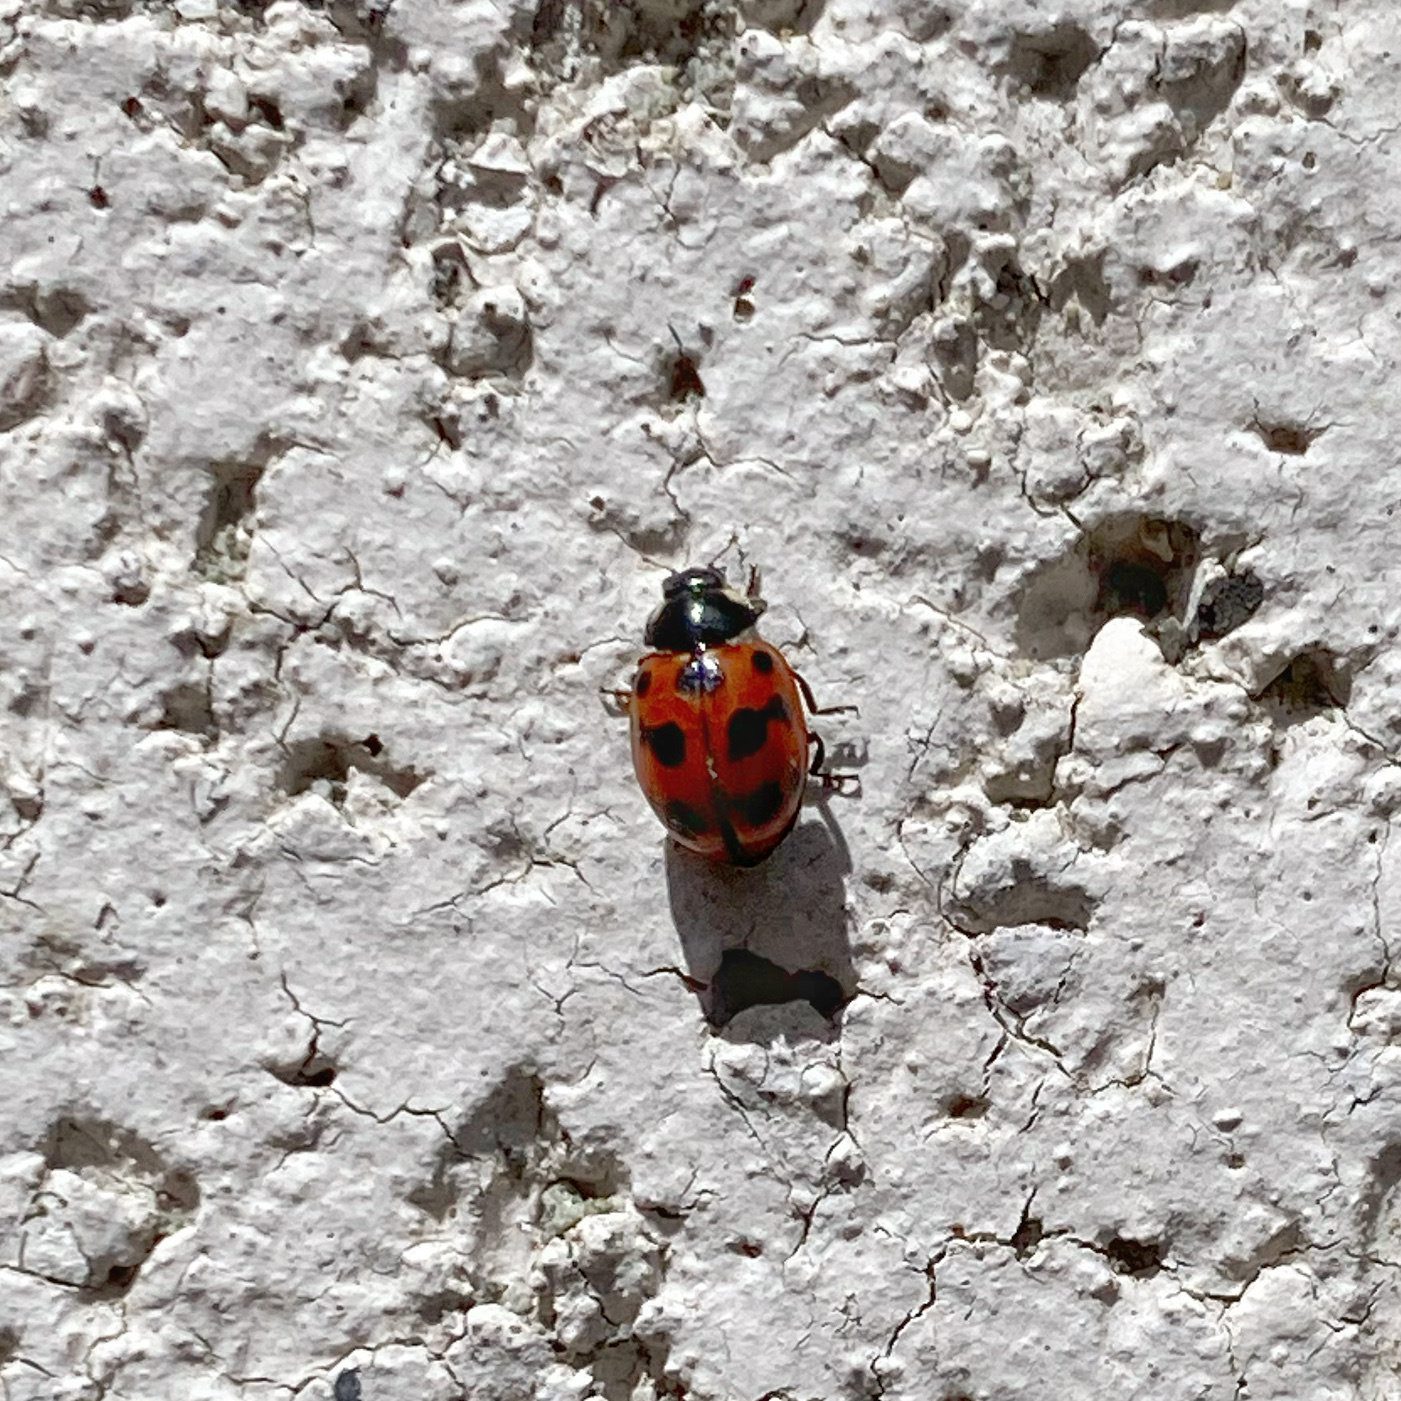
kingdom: Animalia
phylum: Arthropoda
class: Insecta
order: Coleoptera
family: Coccinellidae
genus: Coccinella
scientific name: Coccinella undecimpunctata
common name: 11-spot ladybird
